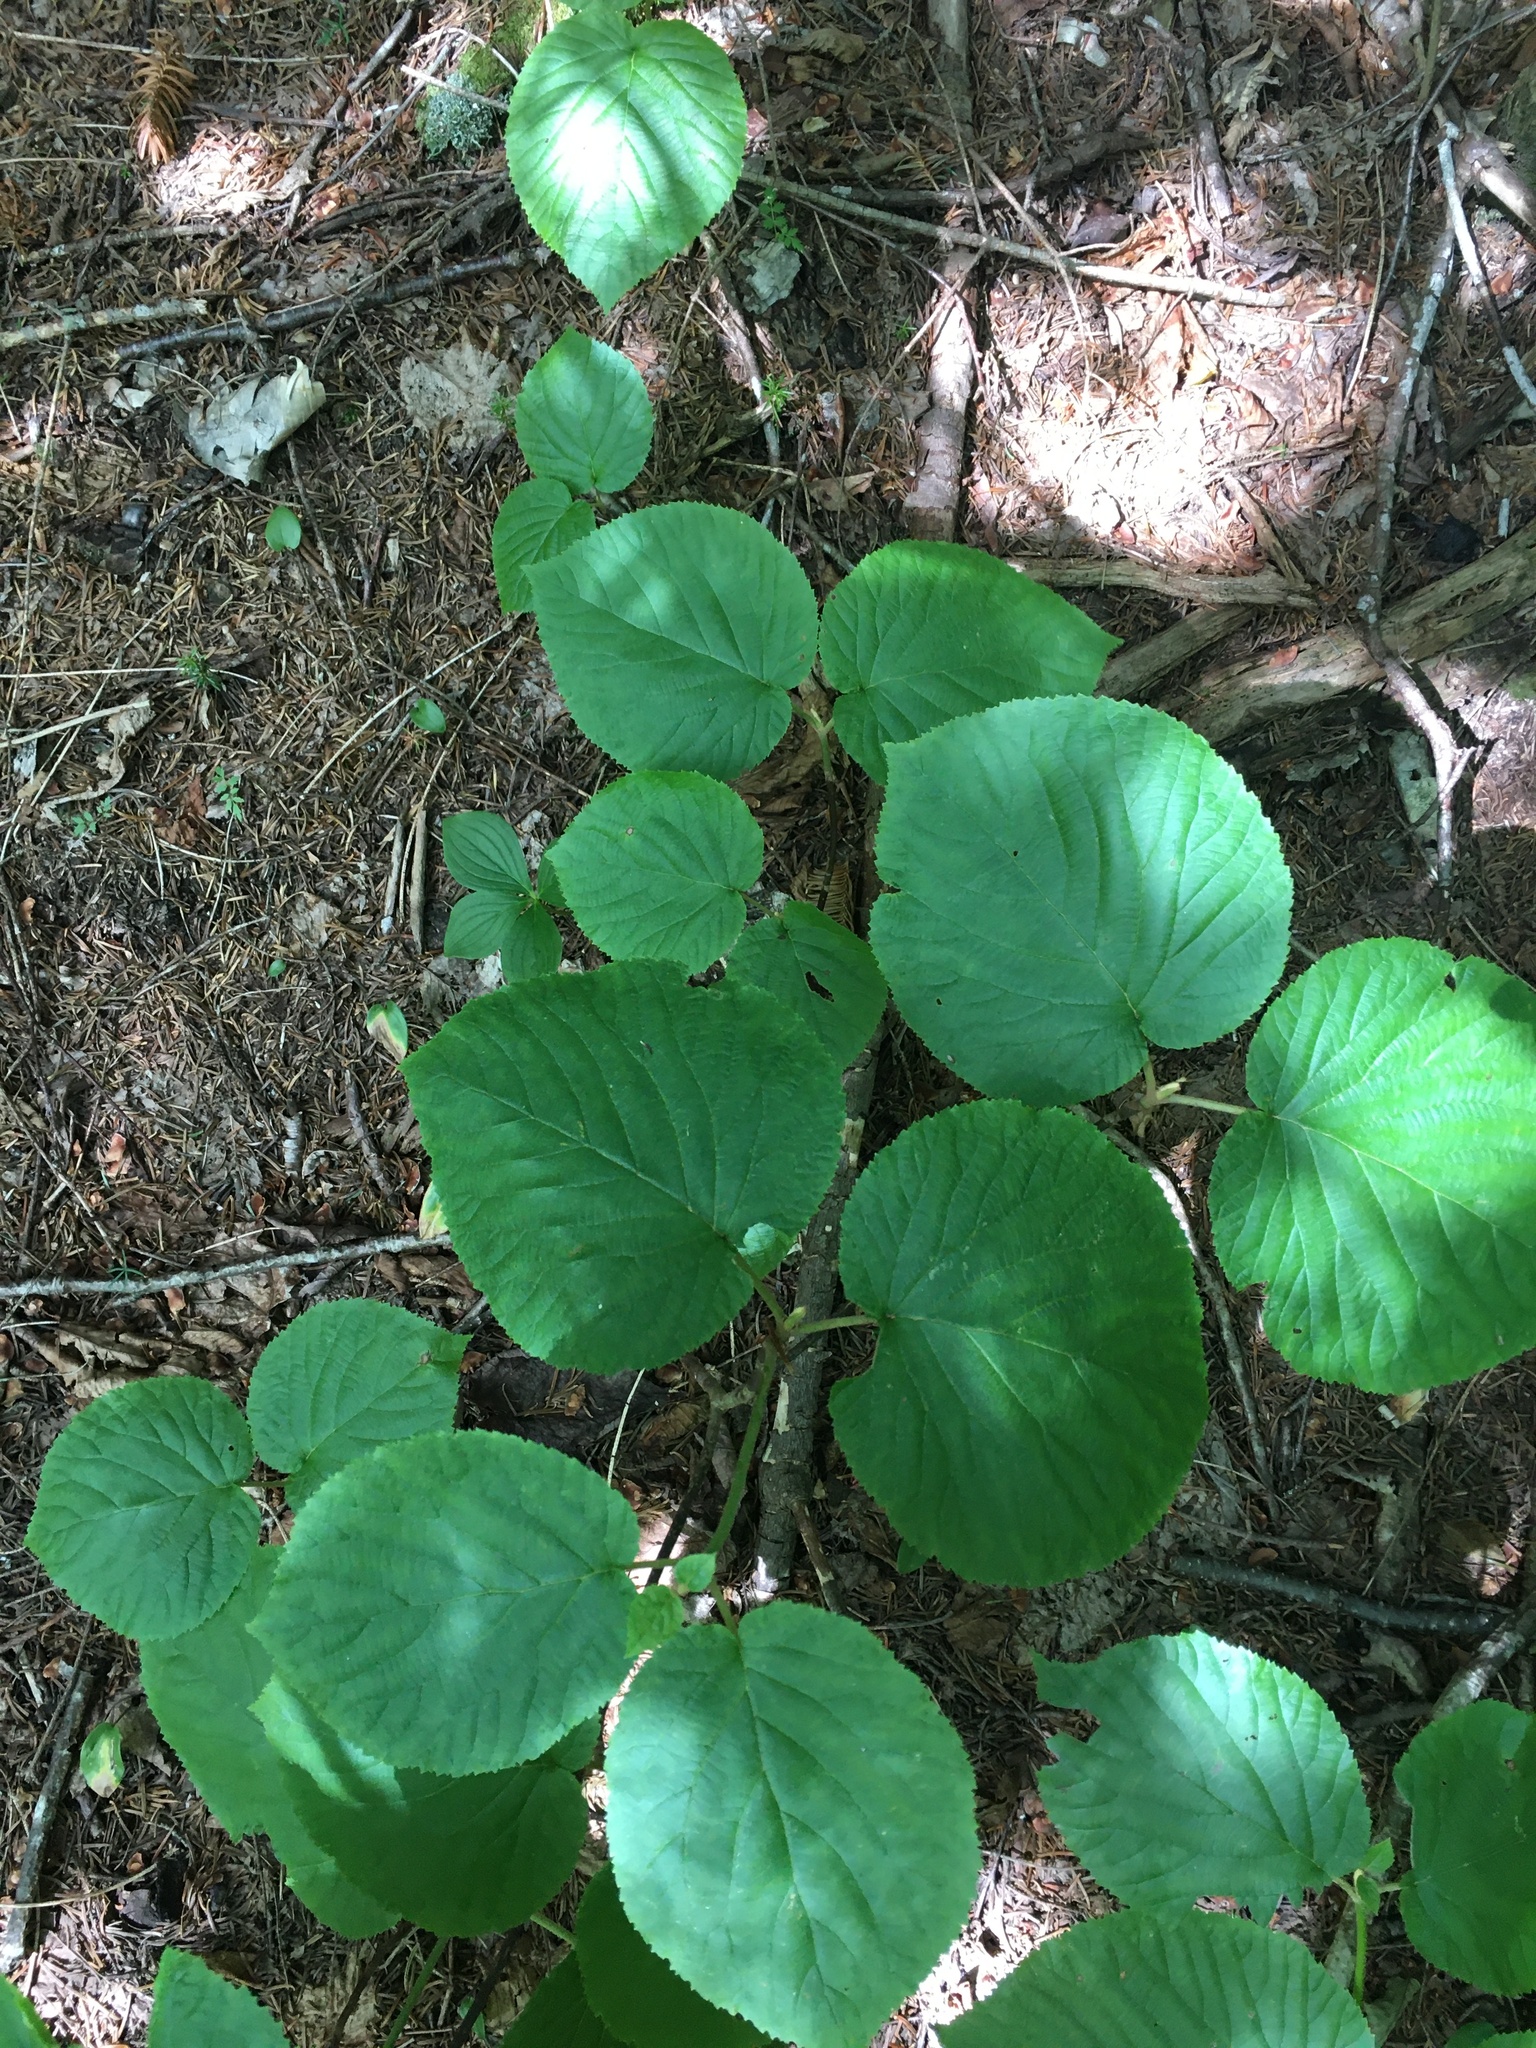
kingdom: Plantae
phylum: Tracheophyta
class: Magnoliopsida
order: Dipsacales
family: Viburnaceae
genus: Viburnum
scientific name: Viburnum lantanoides
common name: Hobblebush
